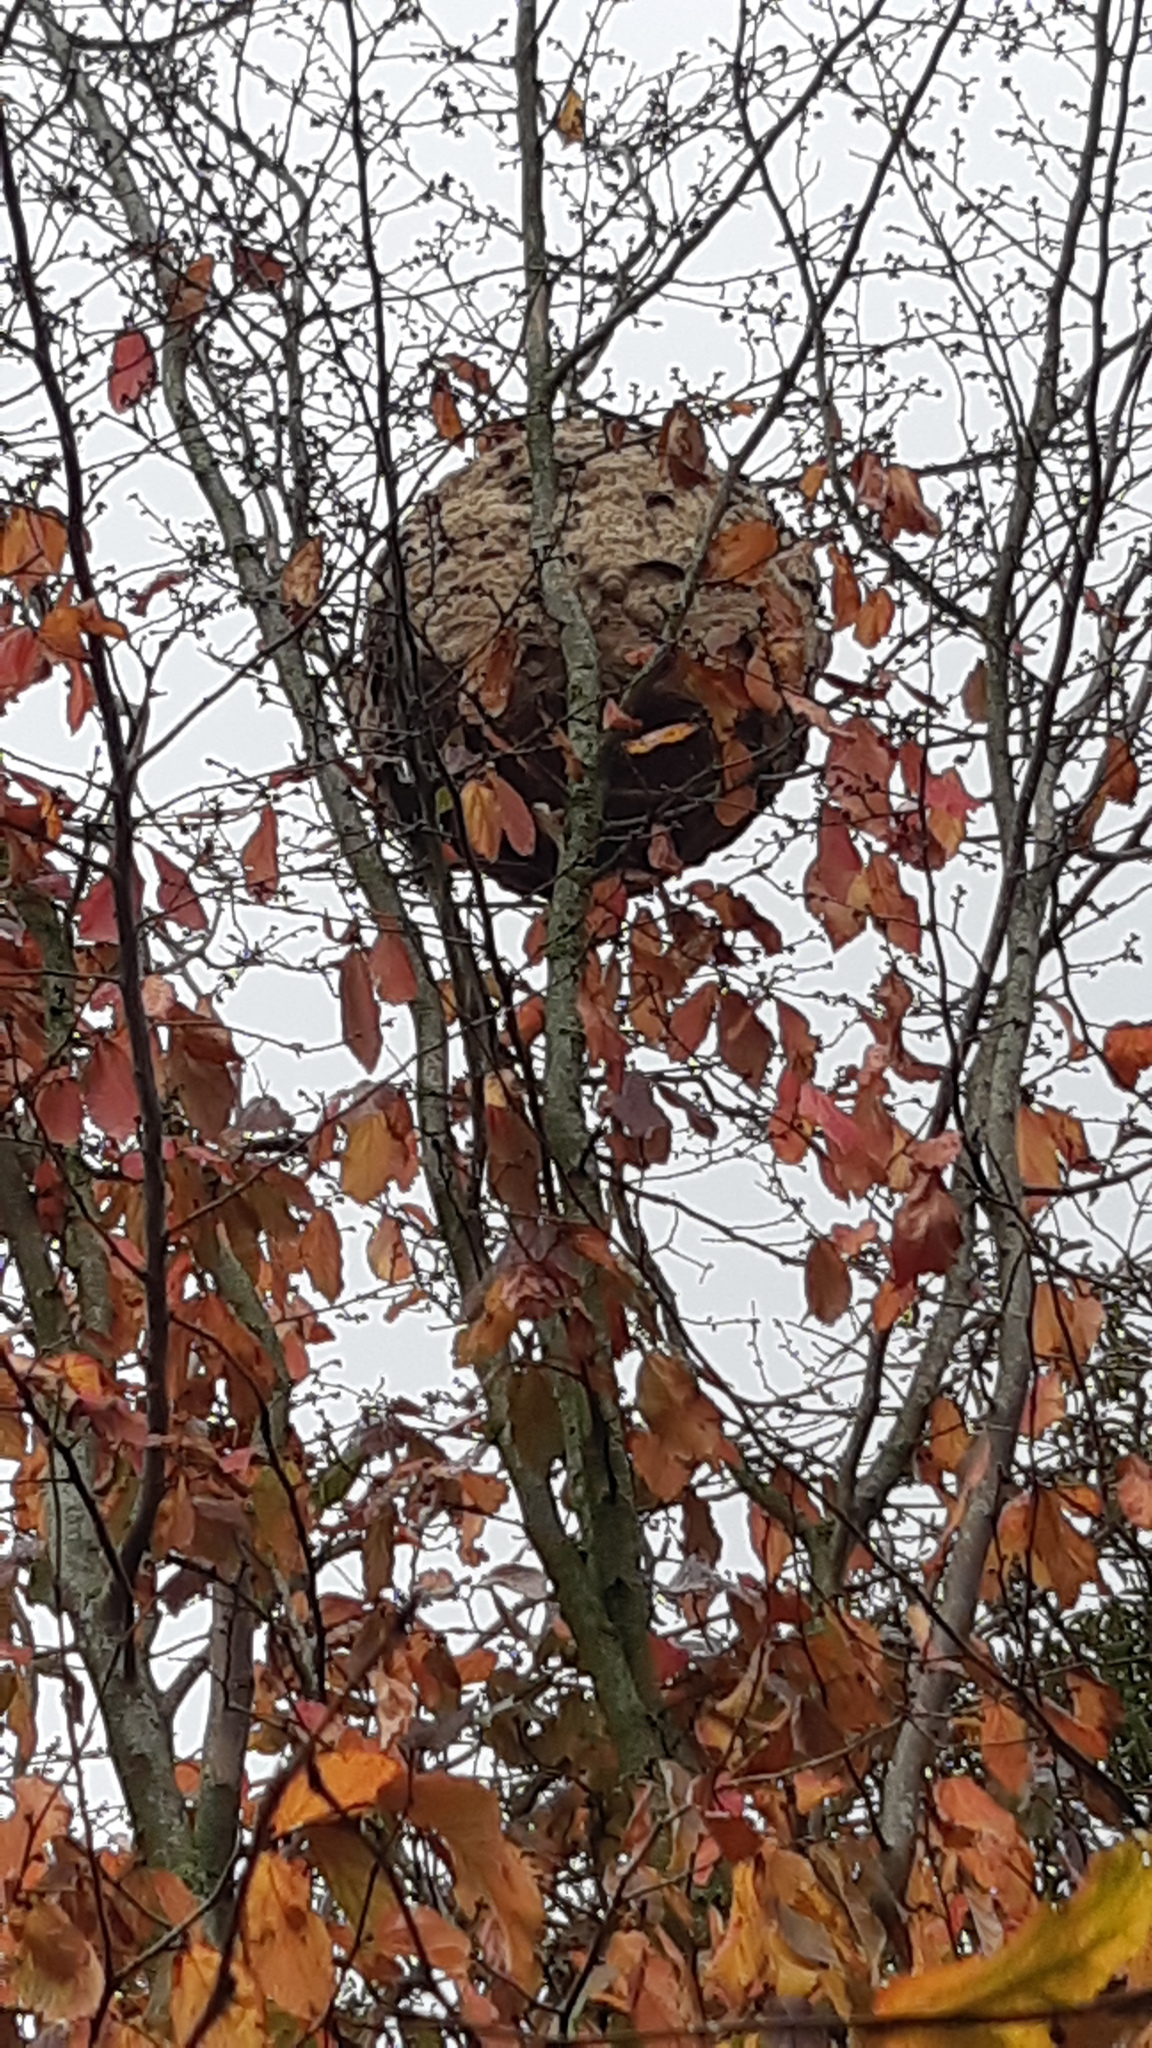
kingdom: Animalia
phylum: Arthropoda
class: Insecta
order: Hymenoptera
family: Vespidae
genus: Vespa
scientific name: Vespa velutina
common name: Asian hornet
